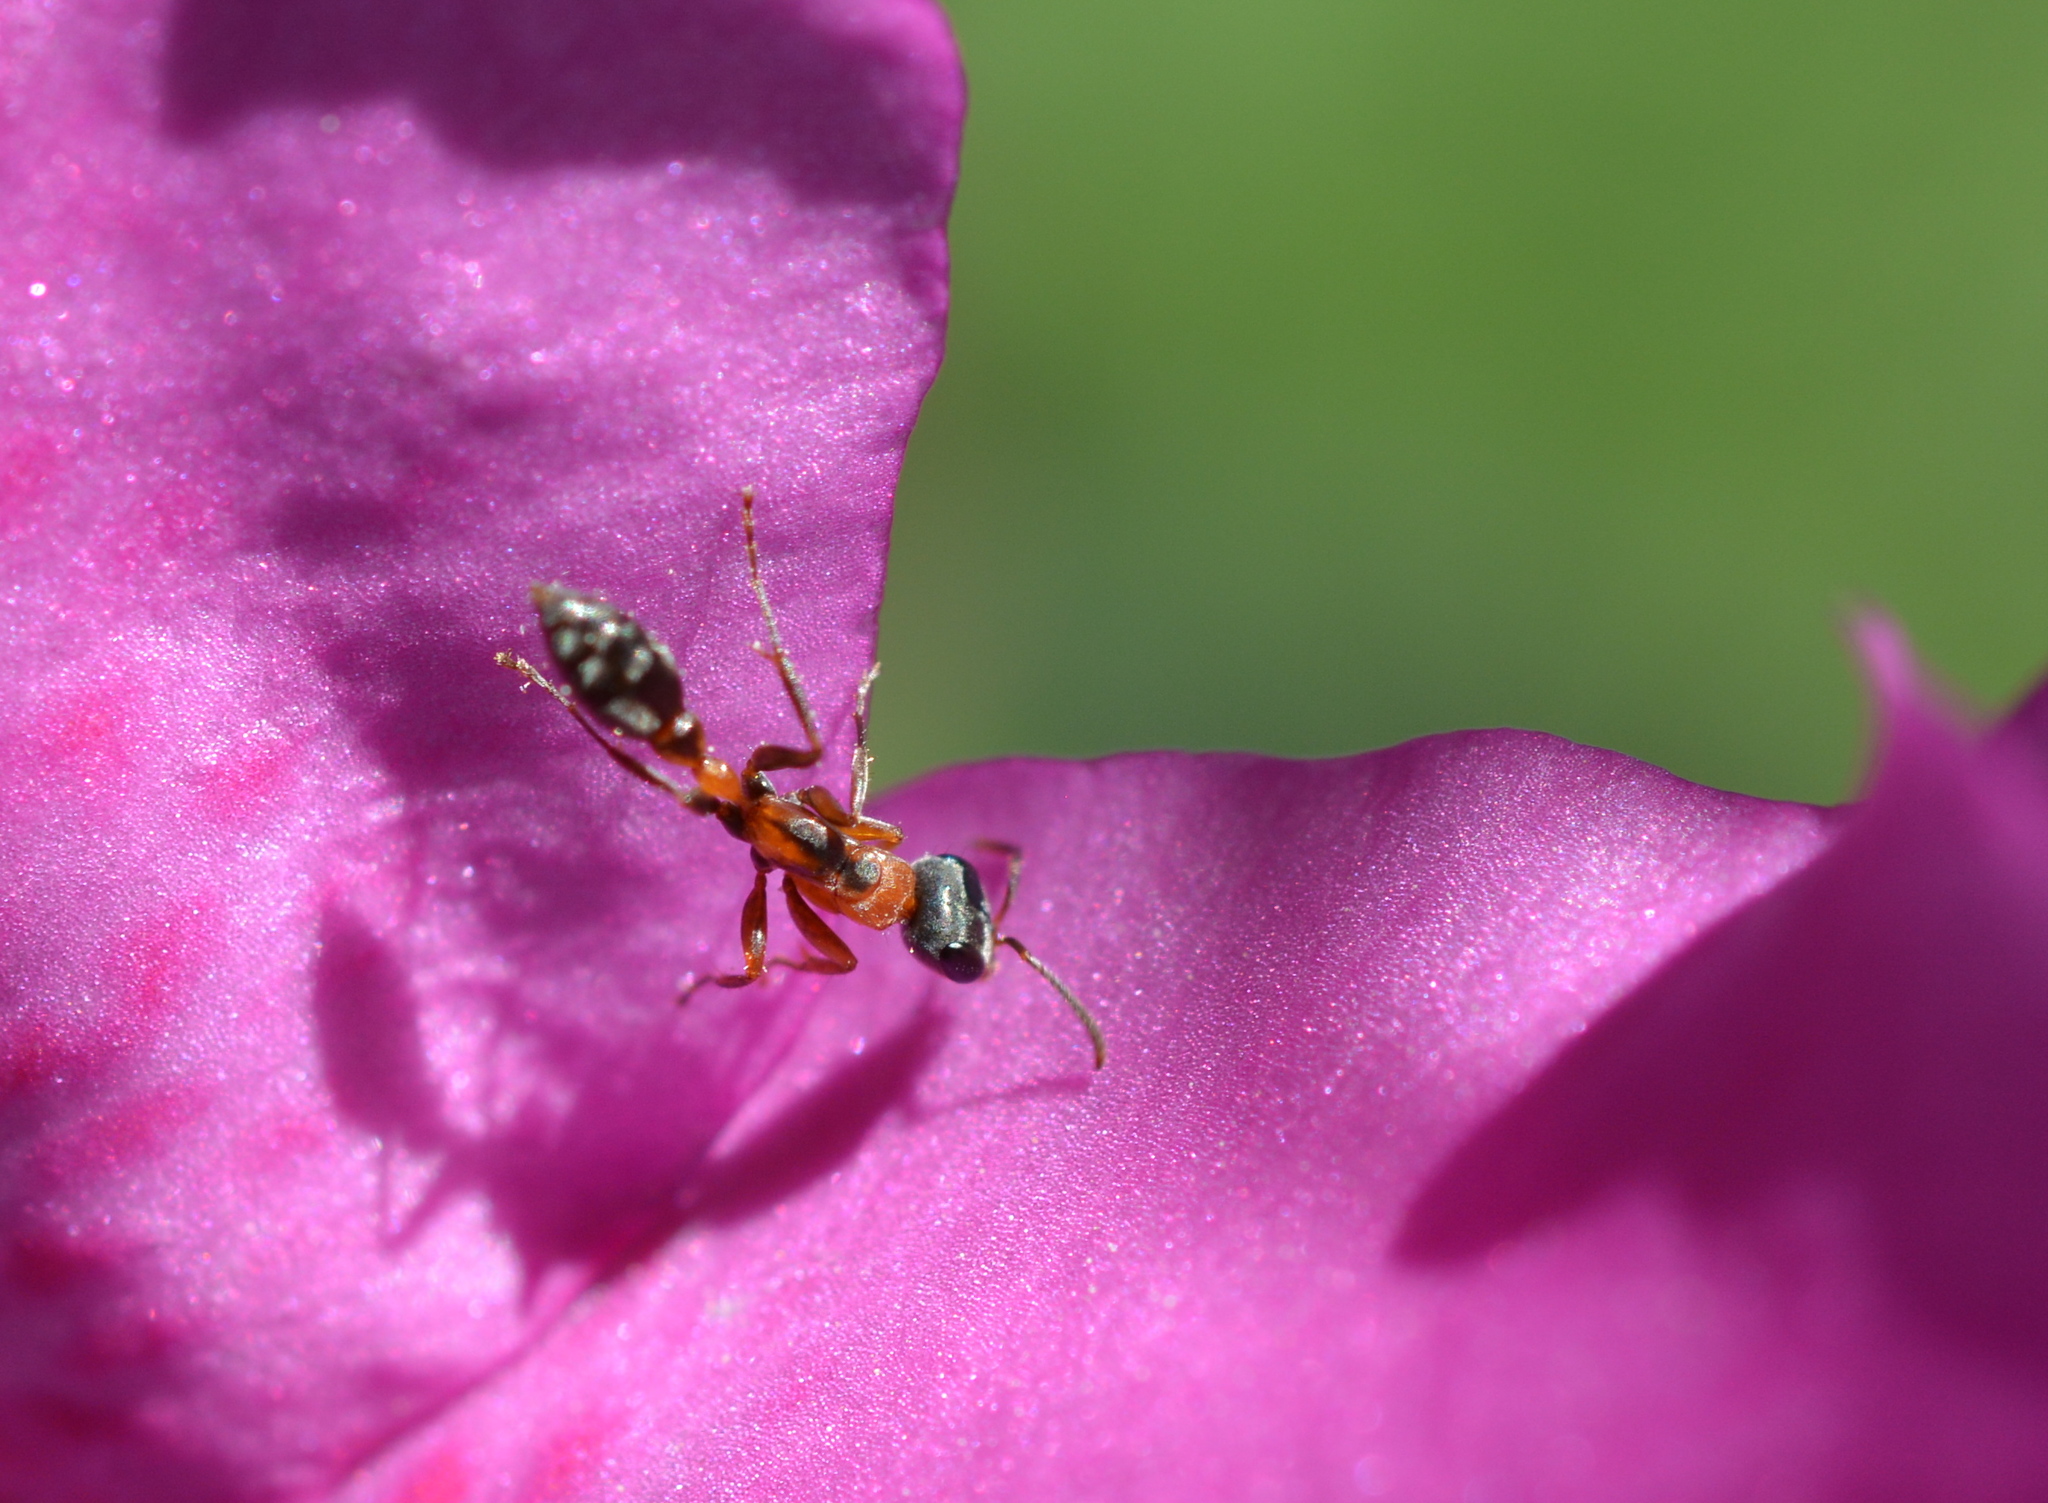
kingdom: Animalia
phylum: Arthropoda
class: Insecta
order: Hymenoptera
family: Formicidae
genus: Pseudomyrmex
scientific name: Pseudomyrmex gracilis
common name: Graceful twig ant
